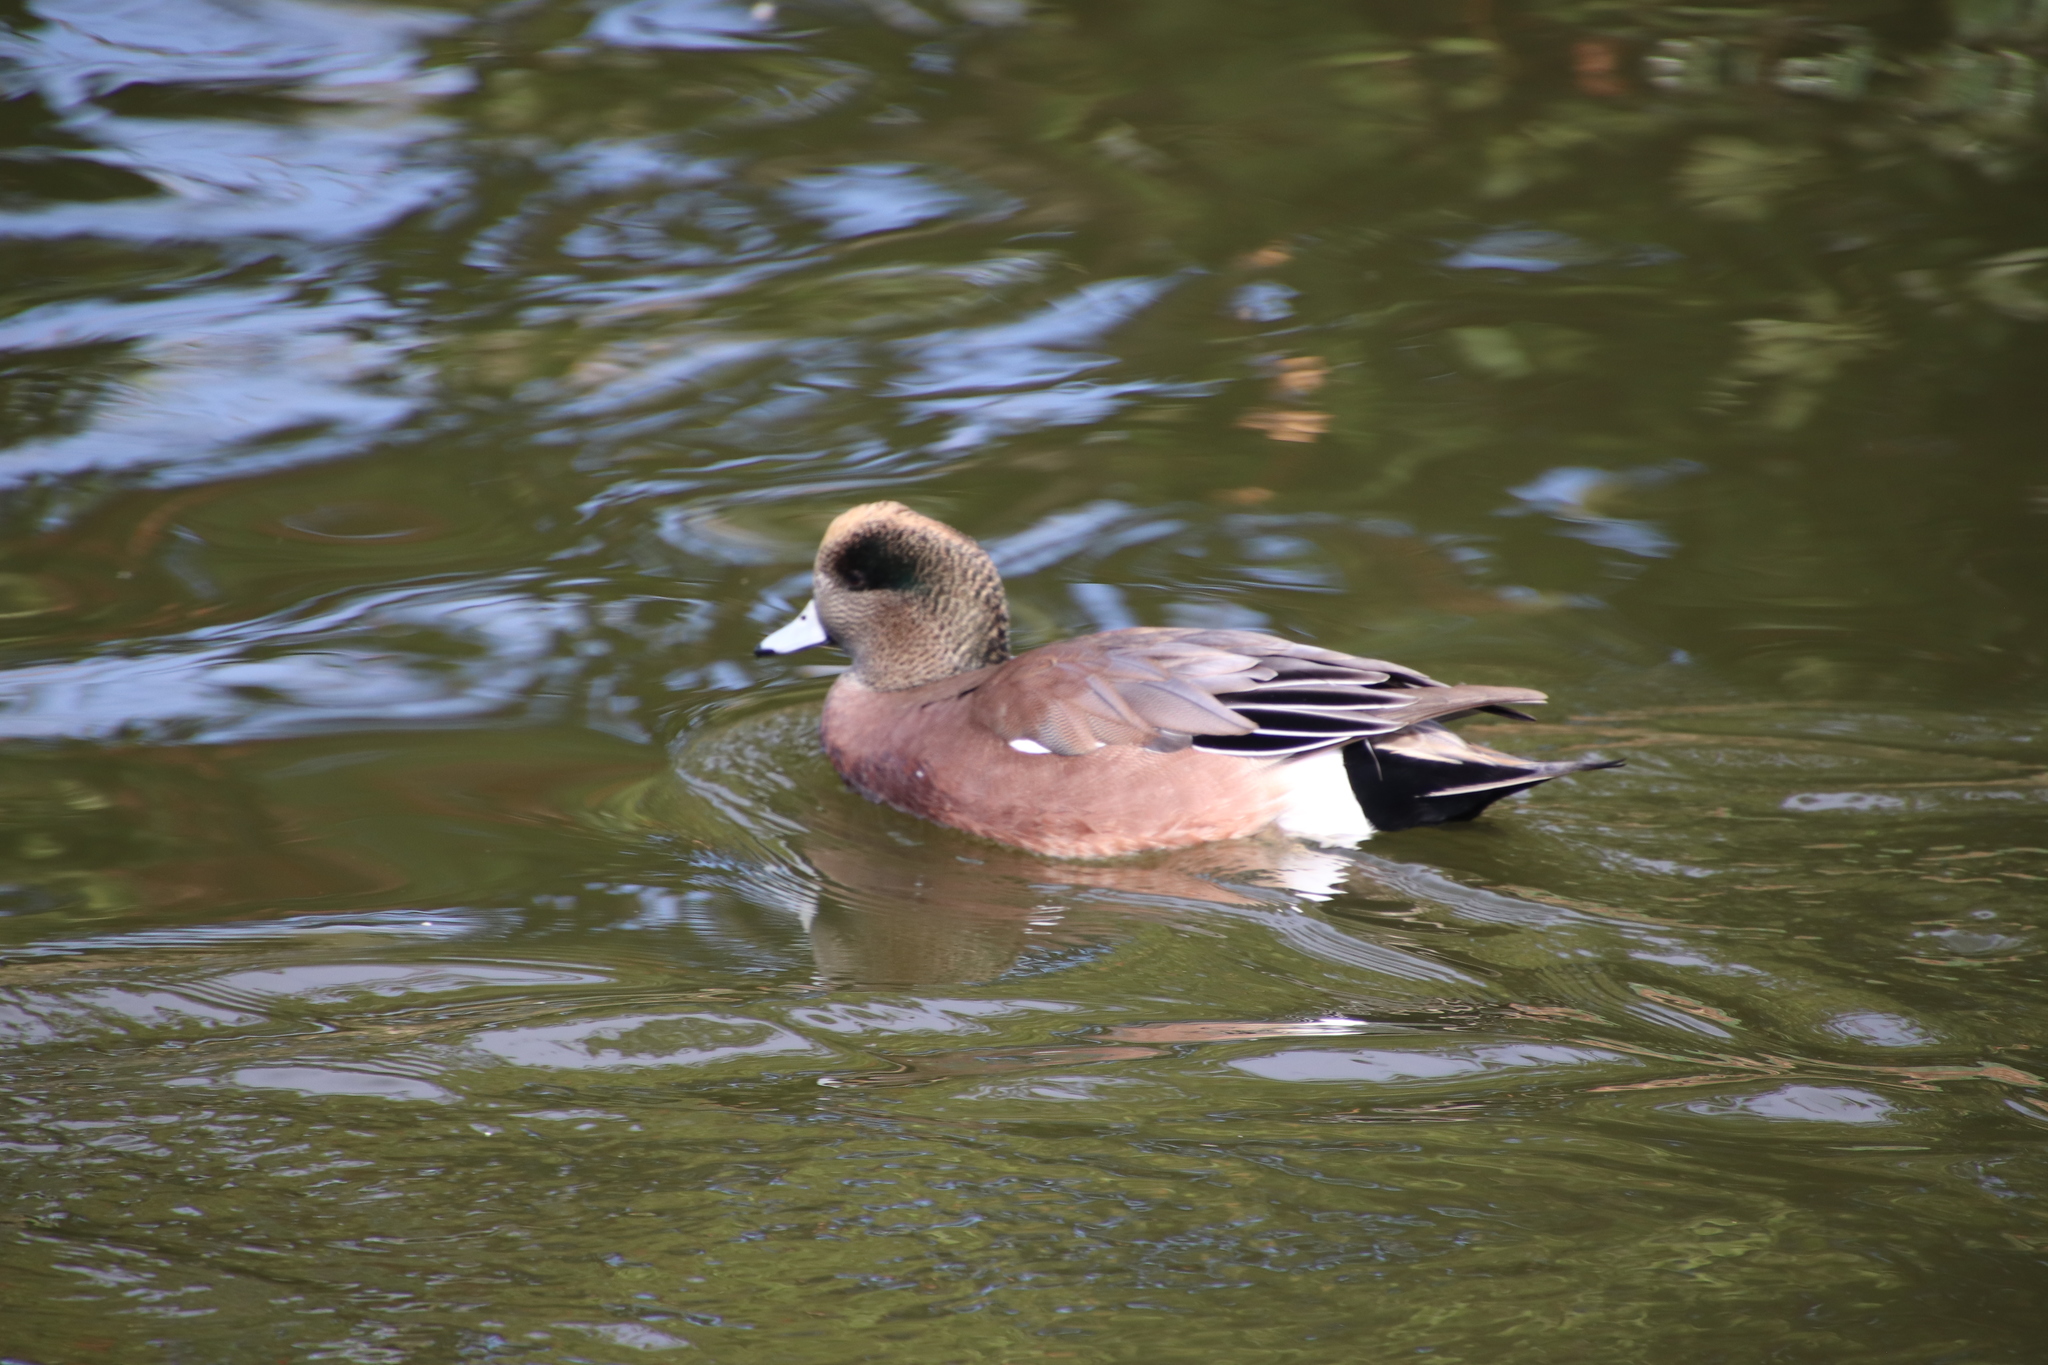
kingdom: Animalia
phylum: Chordata
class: Aves
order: Anseriformes
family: Anatidae
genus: Mareca
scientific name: Mareca americana
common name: American wigeon
